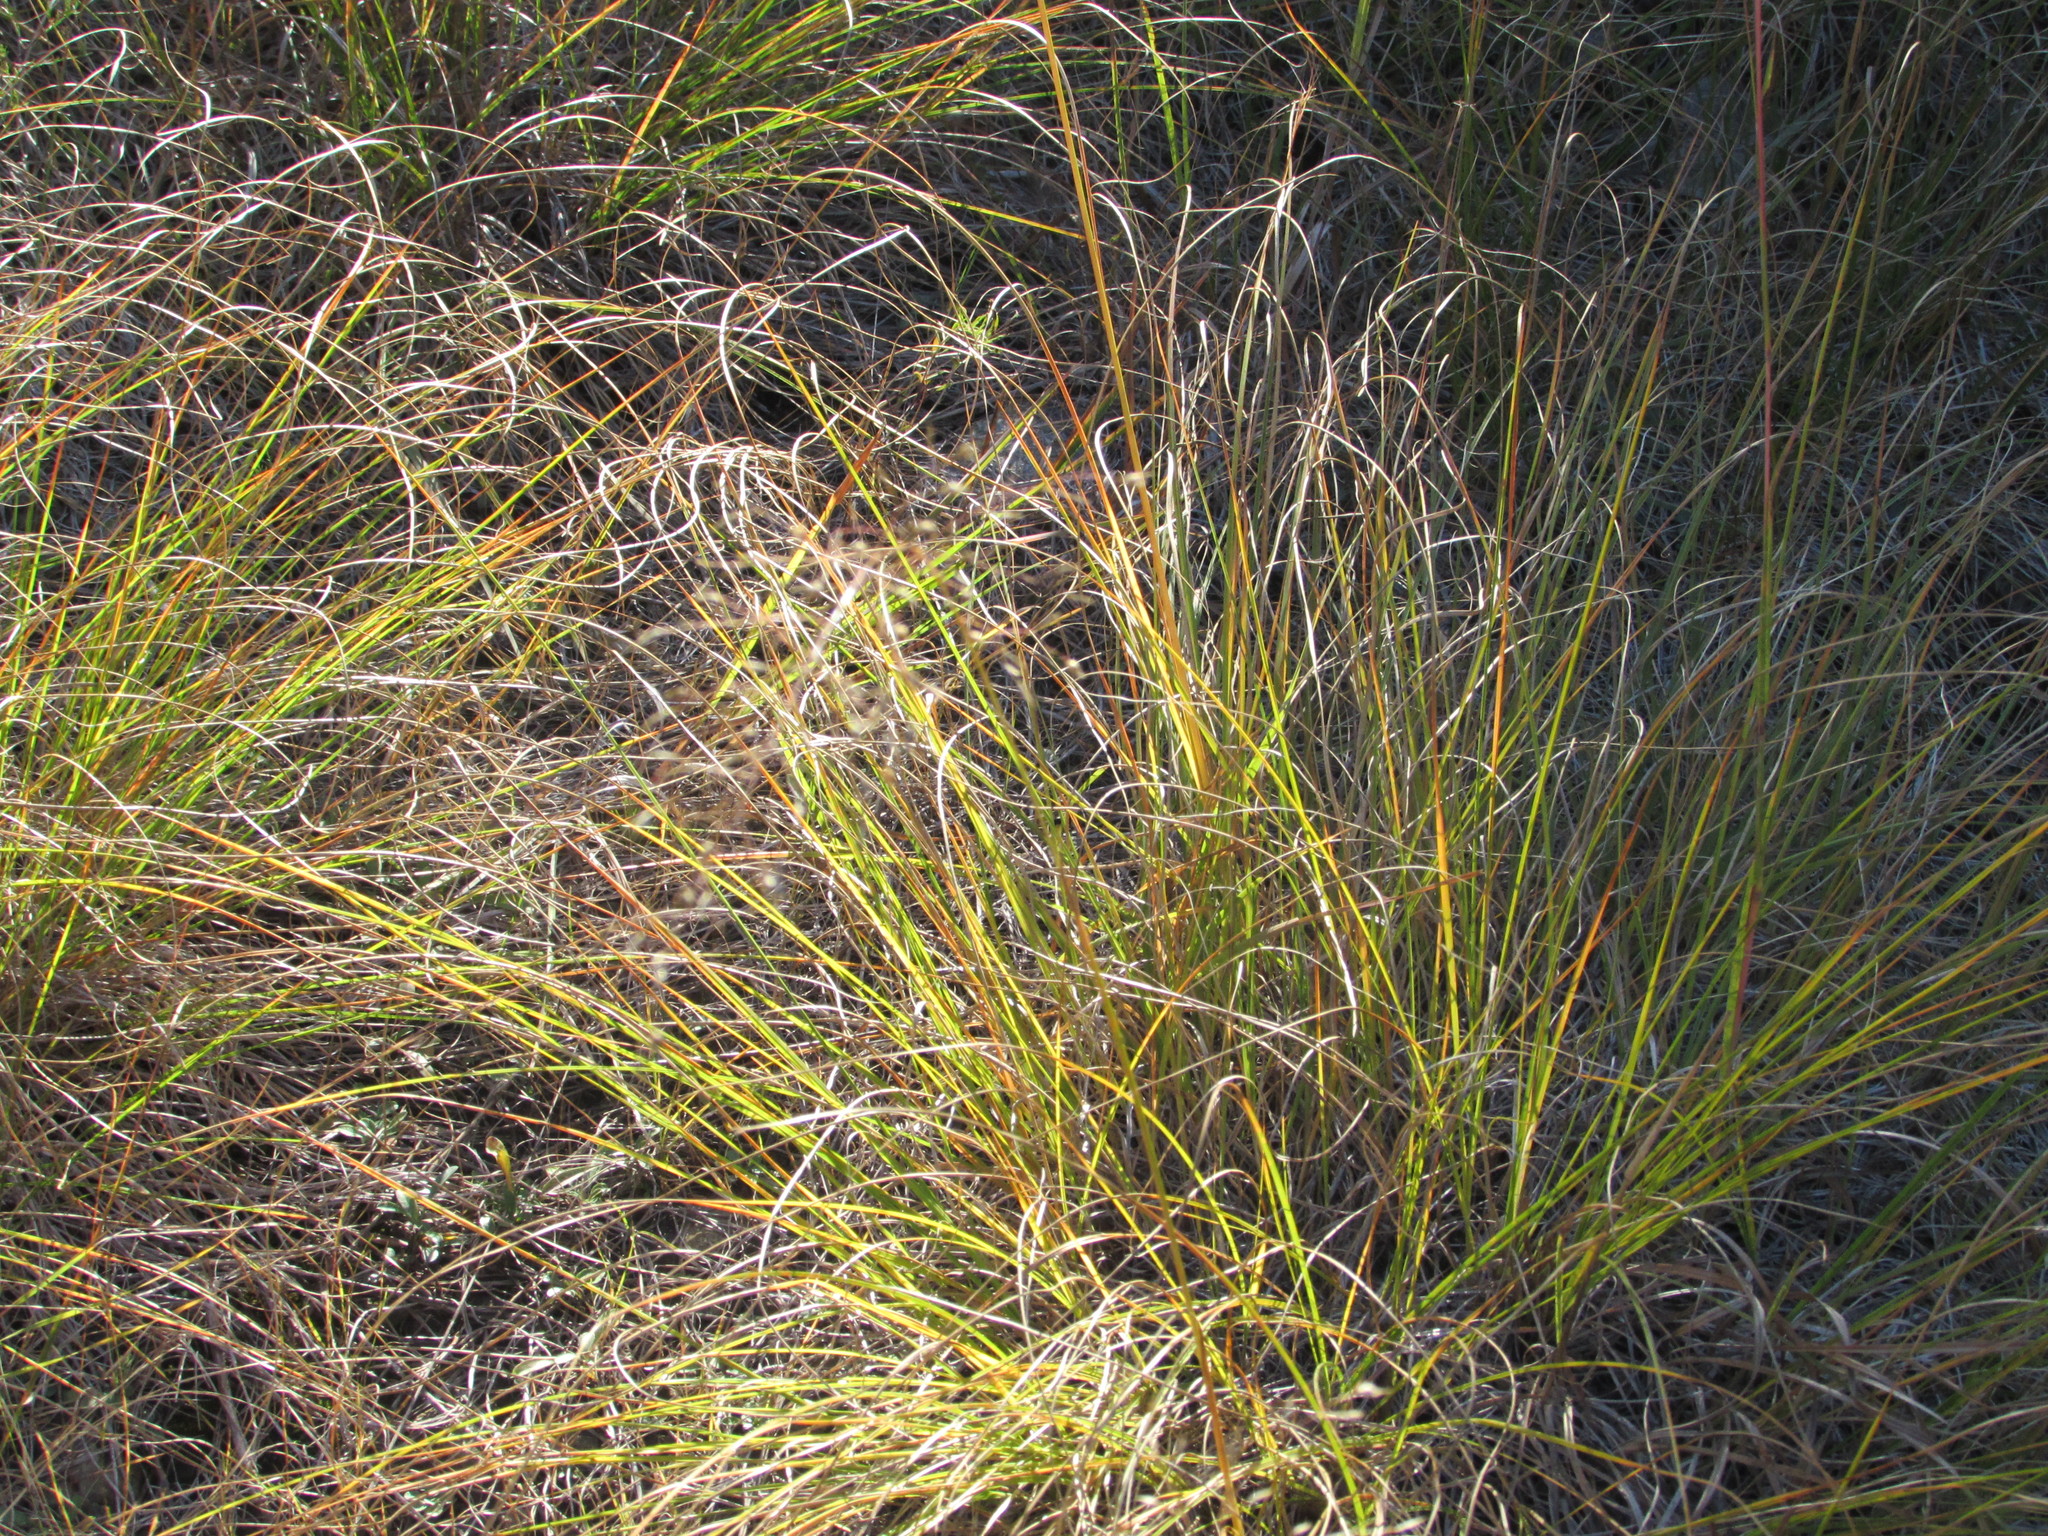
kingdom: Plantae
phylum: Tracheophyta
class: Liliopsida
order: Poales
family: Poaceae
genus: Sporobolus
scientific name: Sporobolus heterolepis
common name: Prairie dropseed
